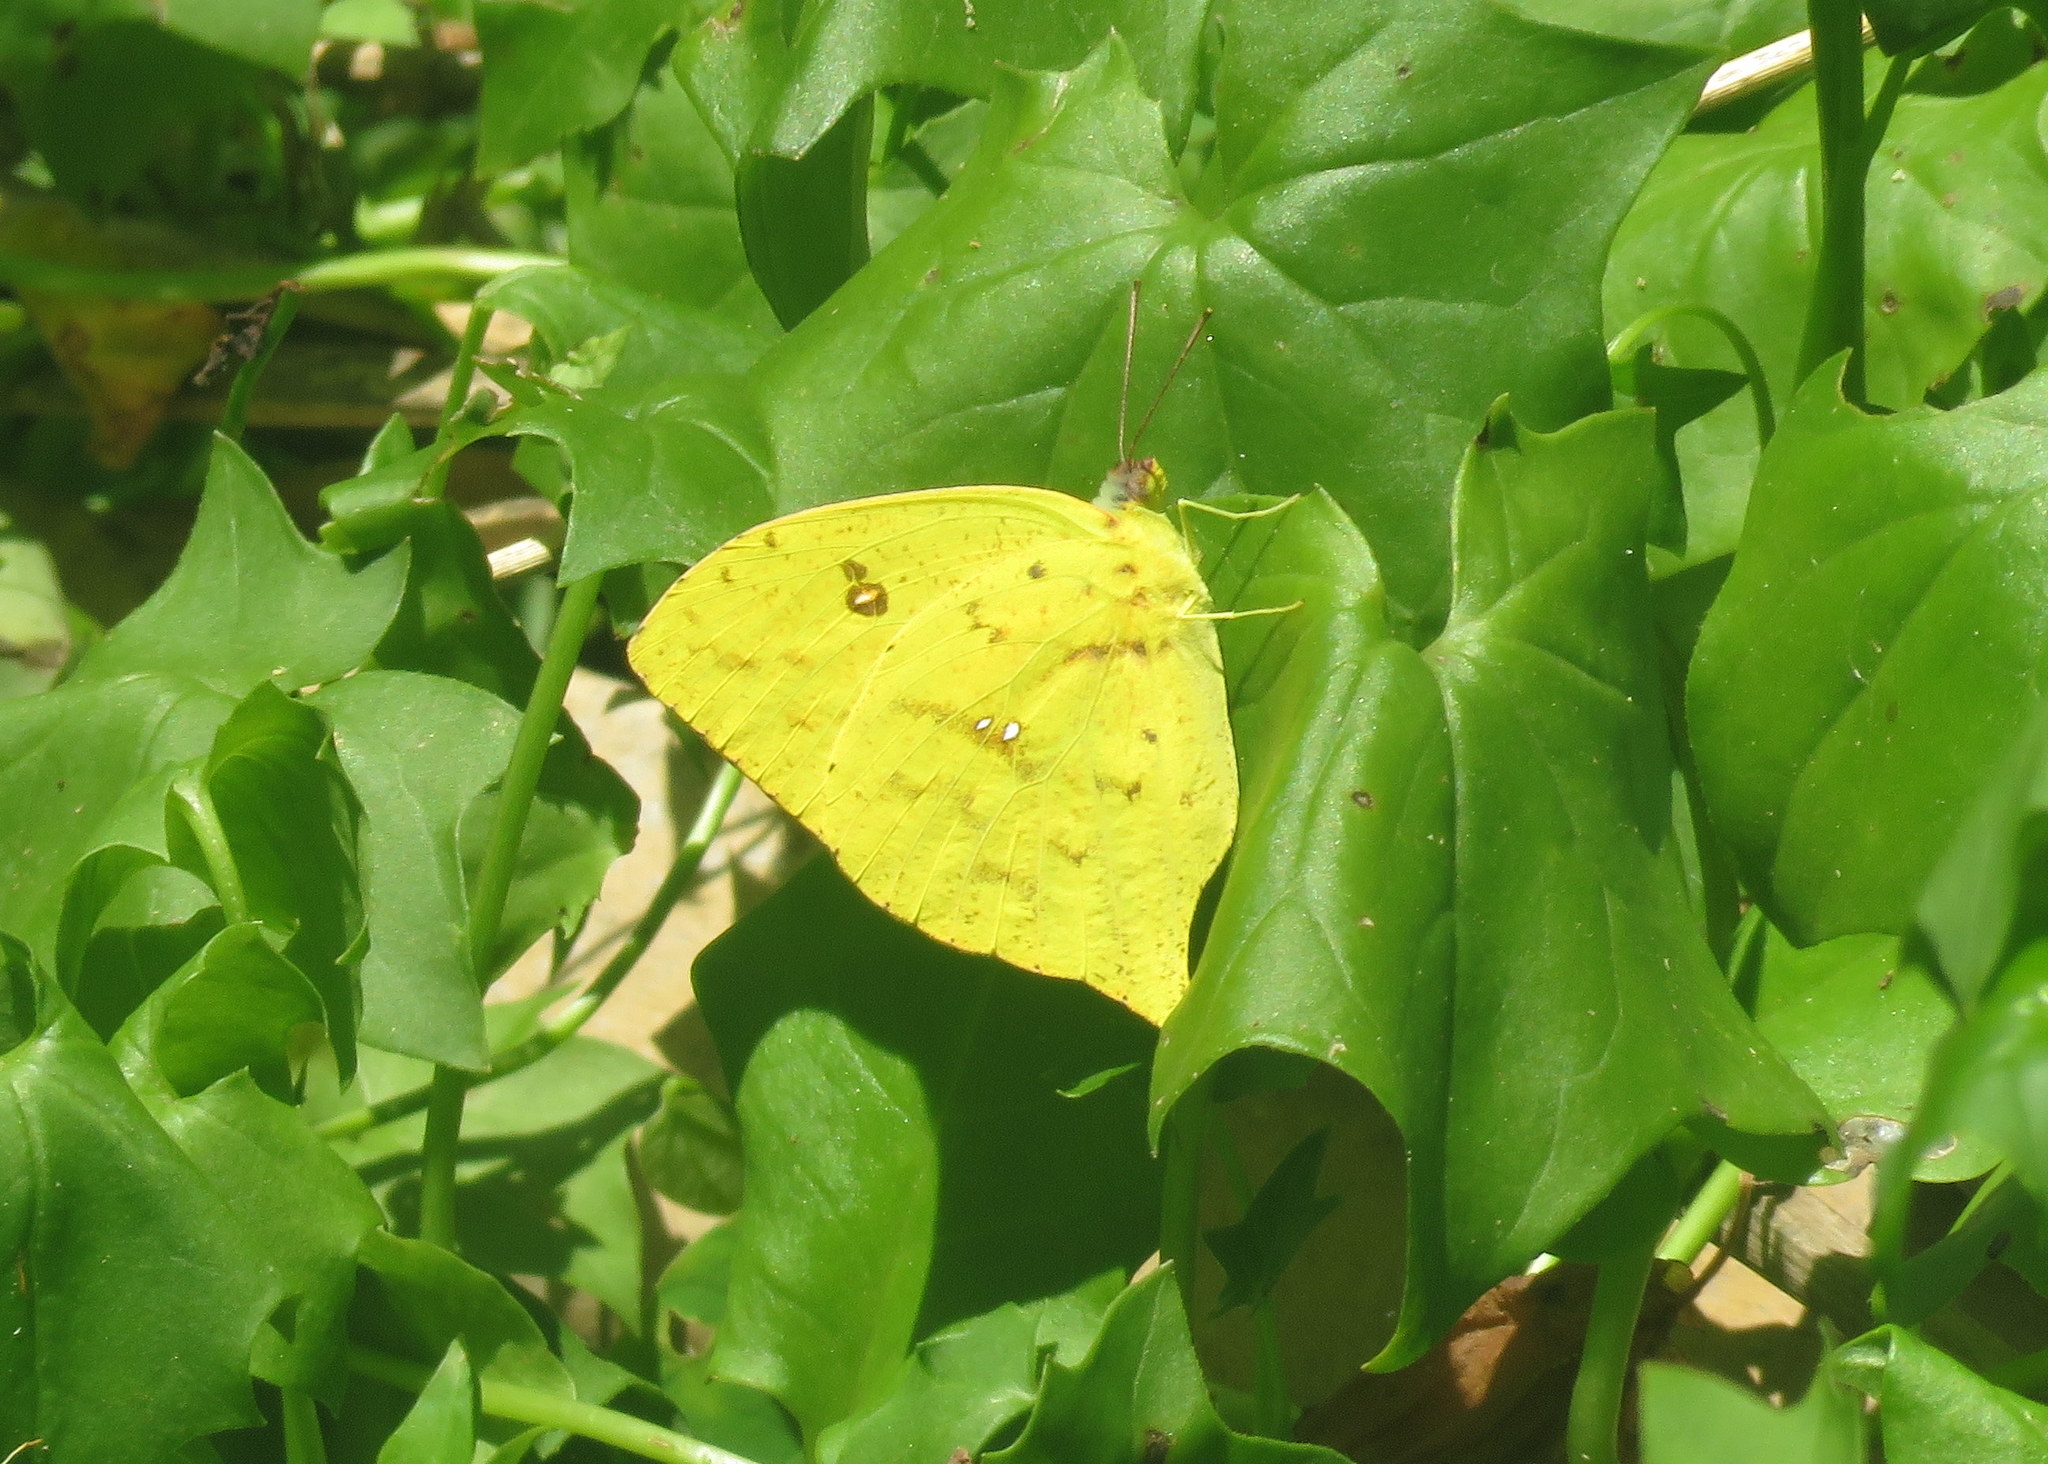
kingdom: Animalia
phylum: Arthropoda
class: Insecta
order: Lepidoptera
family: Pieridae
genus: Phoebis
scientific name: Phoebis neocypris
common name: Tailed sulphur
